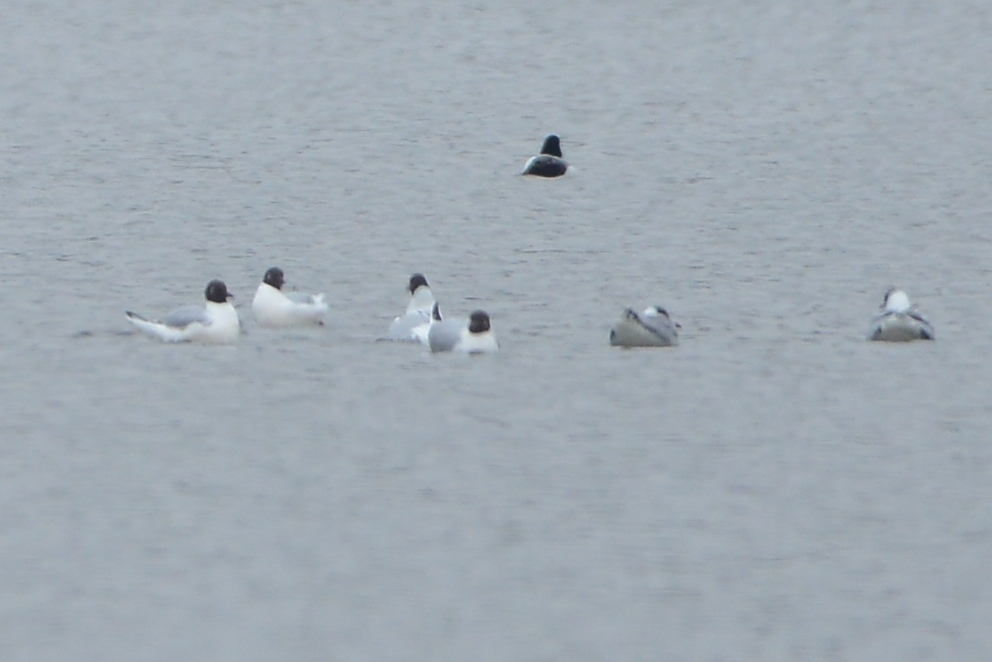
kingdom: Animalia
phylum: Chordata
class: Aves
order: Charadriiformes
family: Laridae
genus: Chroicocephalus
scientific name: Chroicocephalus ridibundus
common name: Black-headed gull
